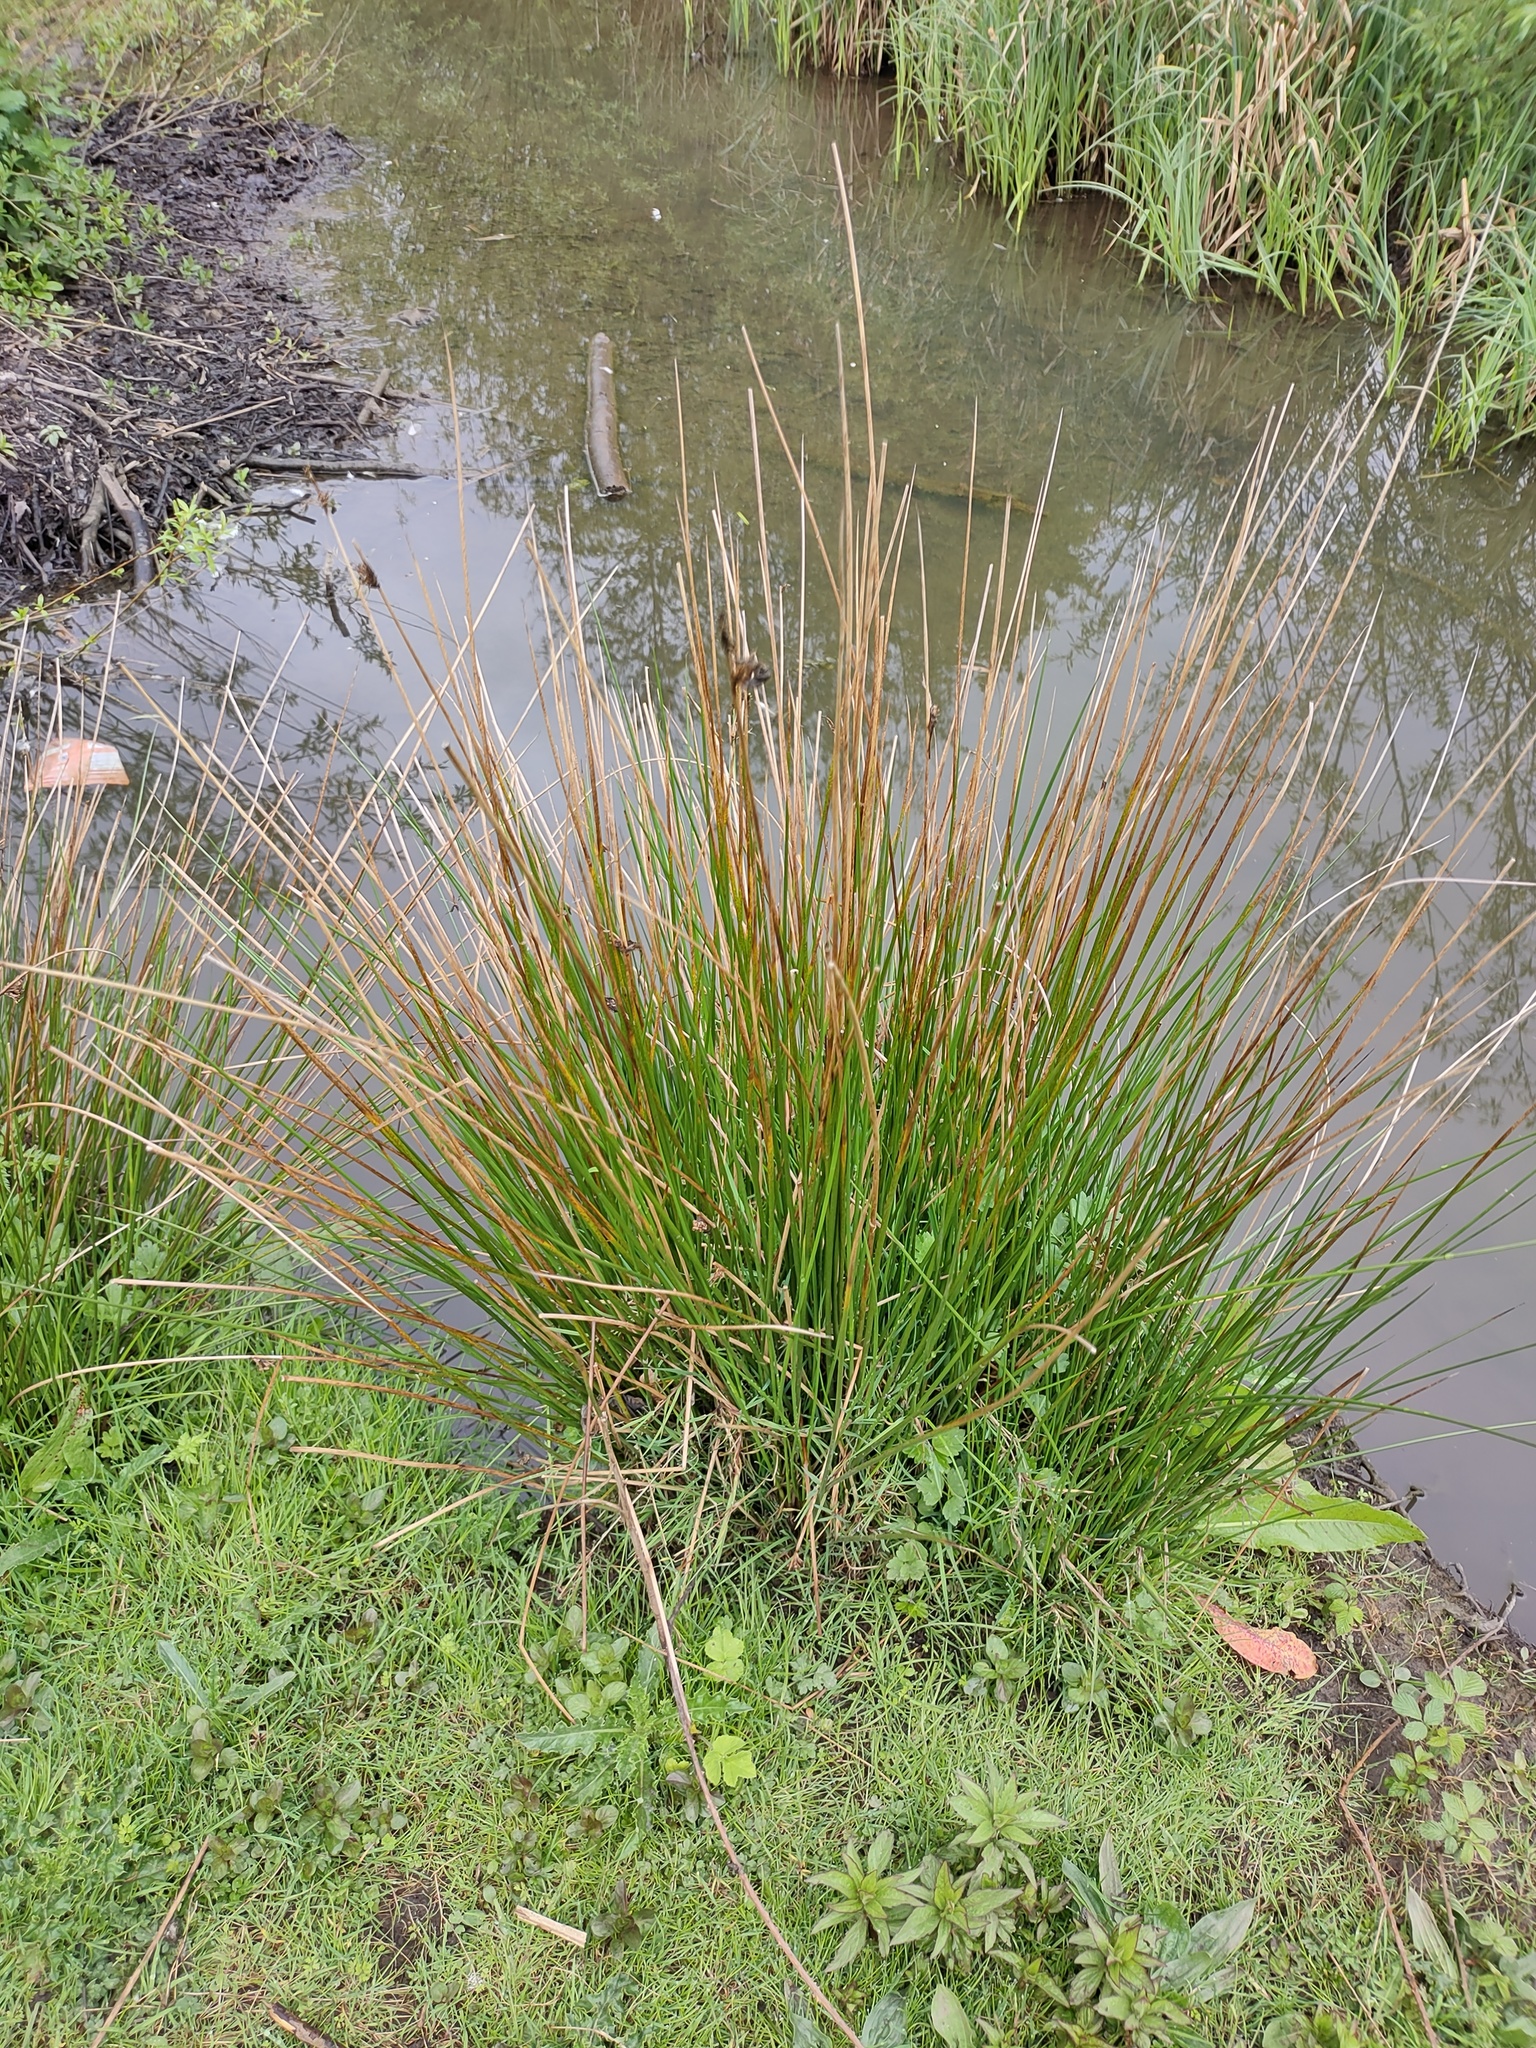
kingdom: Plantae
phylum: Tracheophyta
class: Liliopsida
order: Poales
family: Juncaceae
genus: Juncus
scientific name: Juncus effusus
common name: Soft rush
